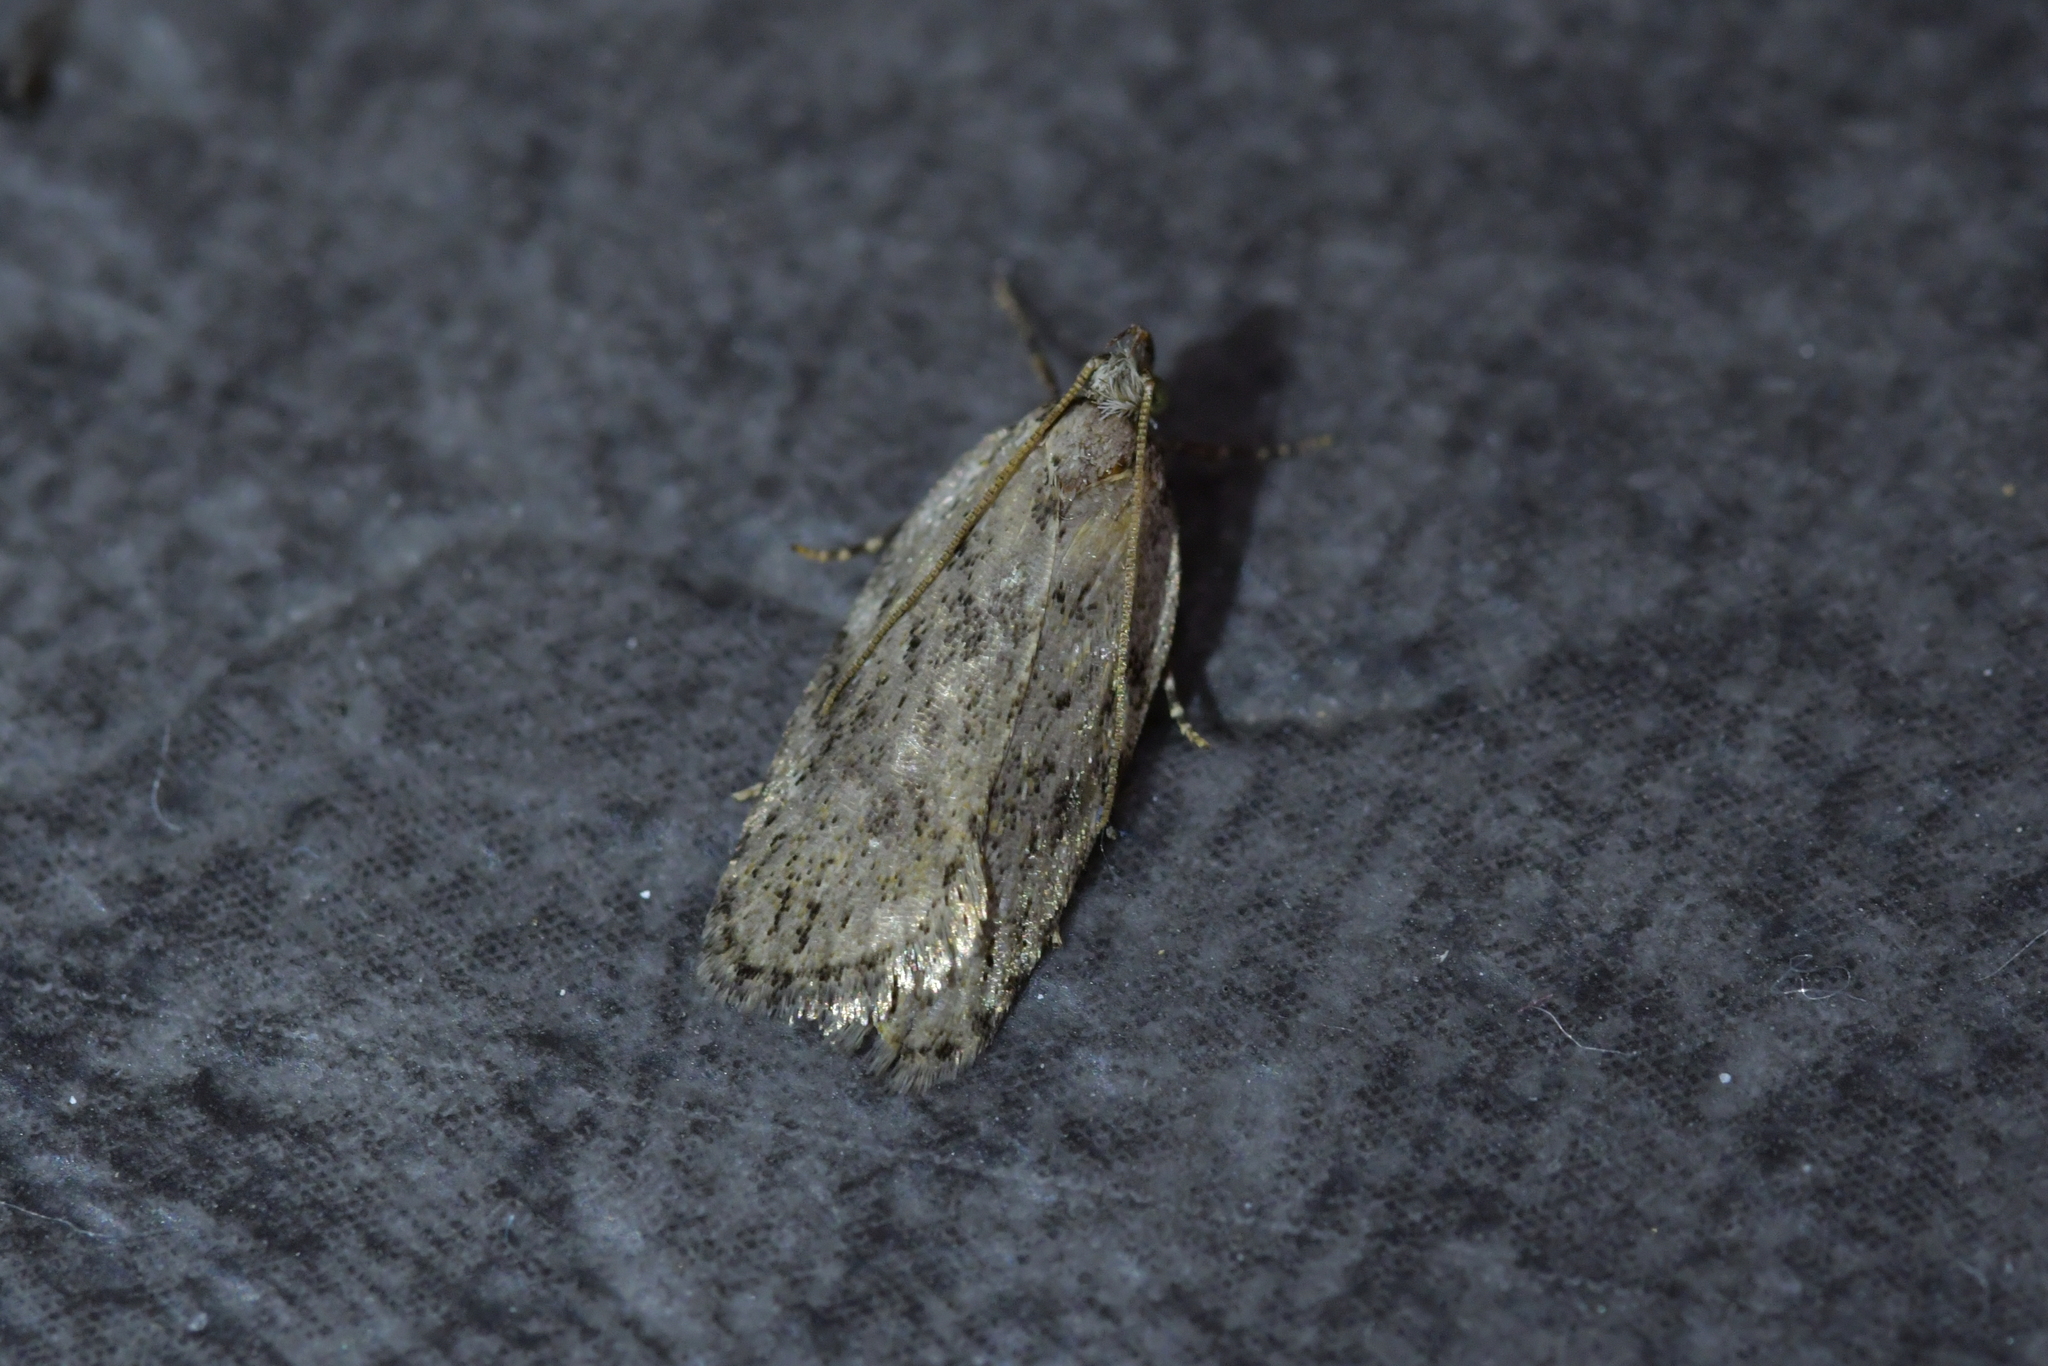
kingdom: Animalia
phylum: Arthropoda
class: Insecta
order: Lepidoptera
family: Depressariidae
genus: Phaeosaces
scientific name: Phaeosaces compsotypa
